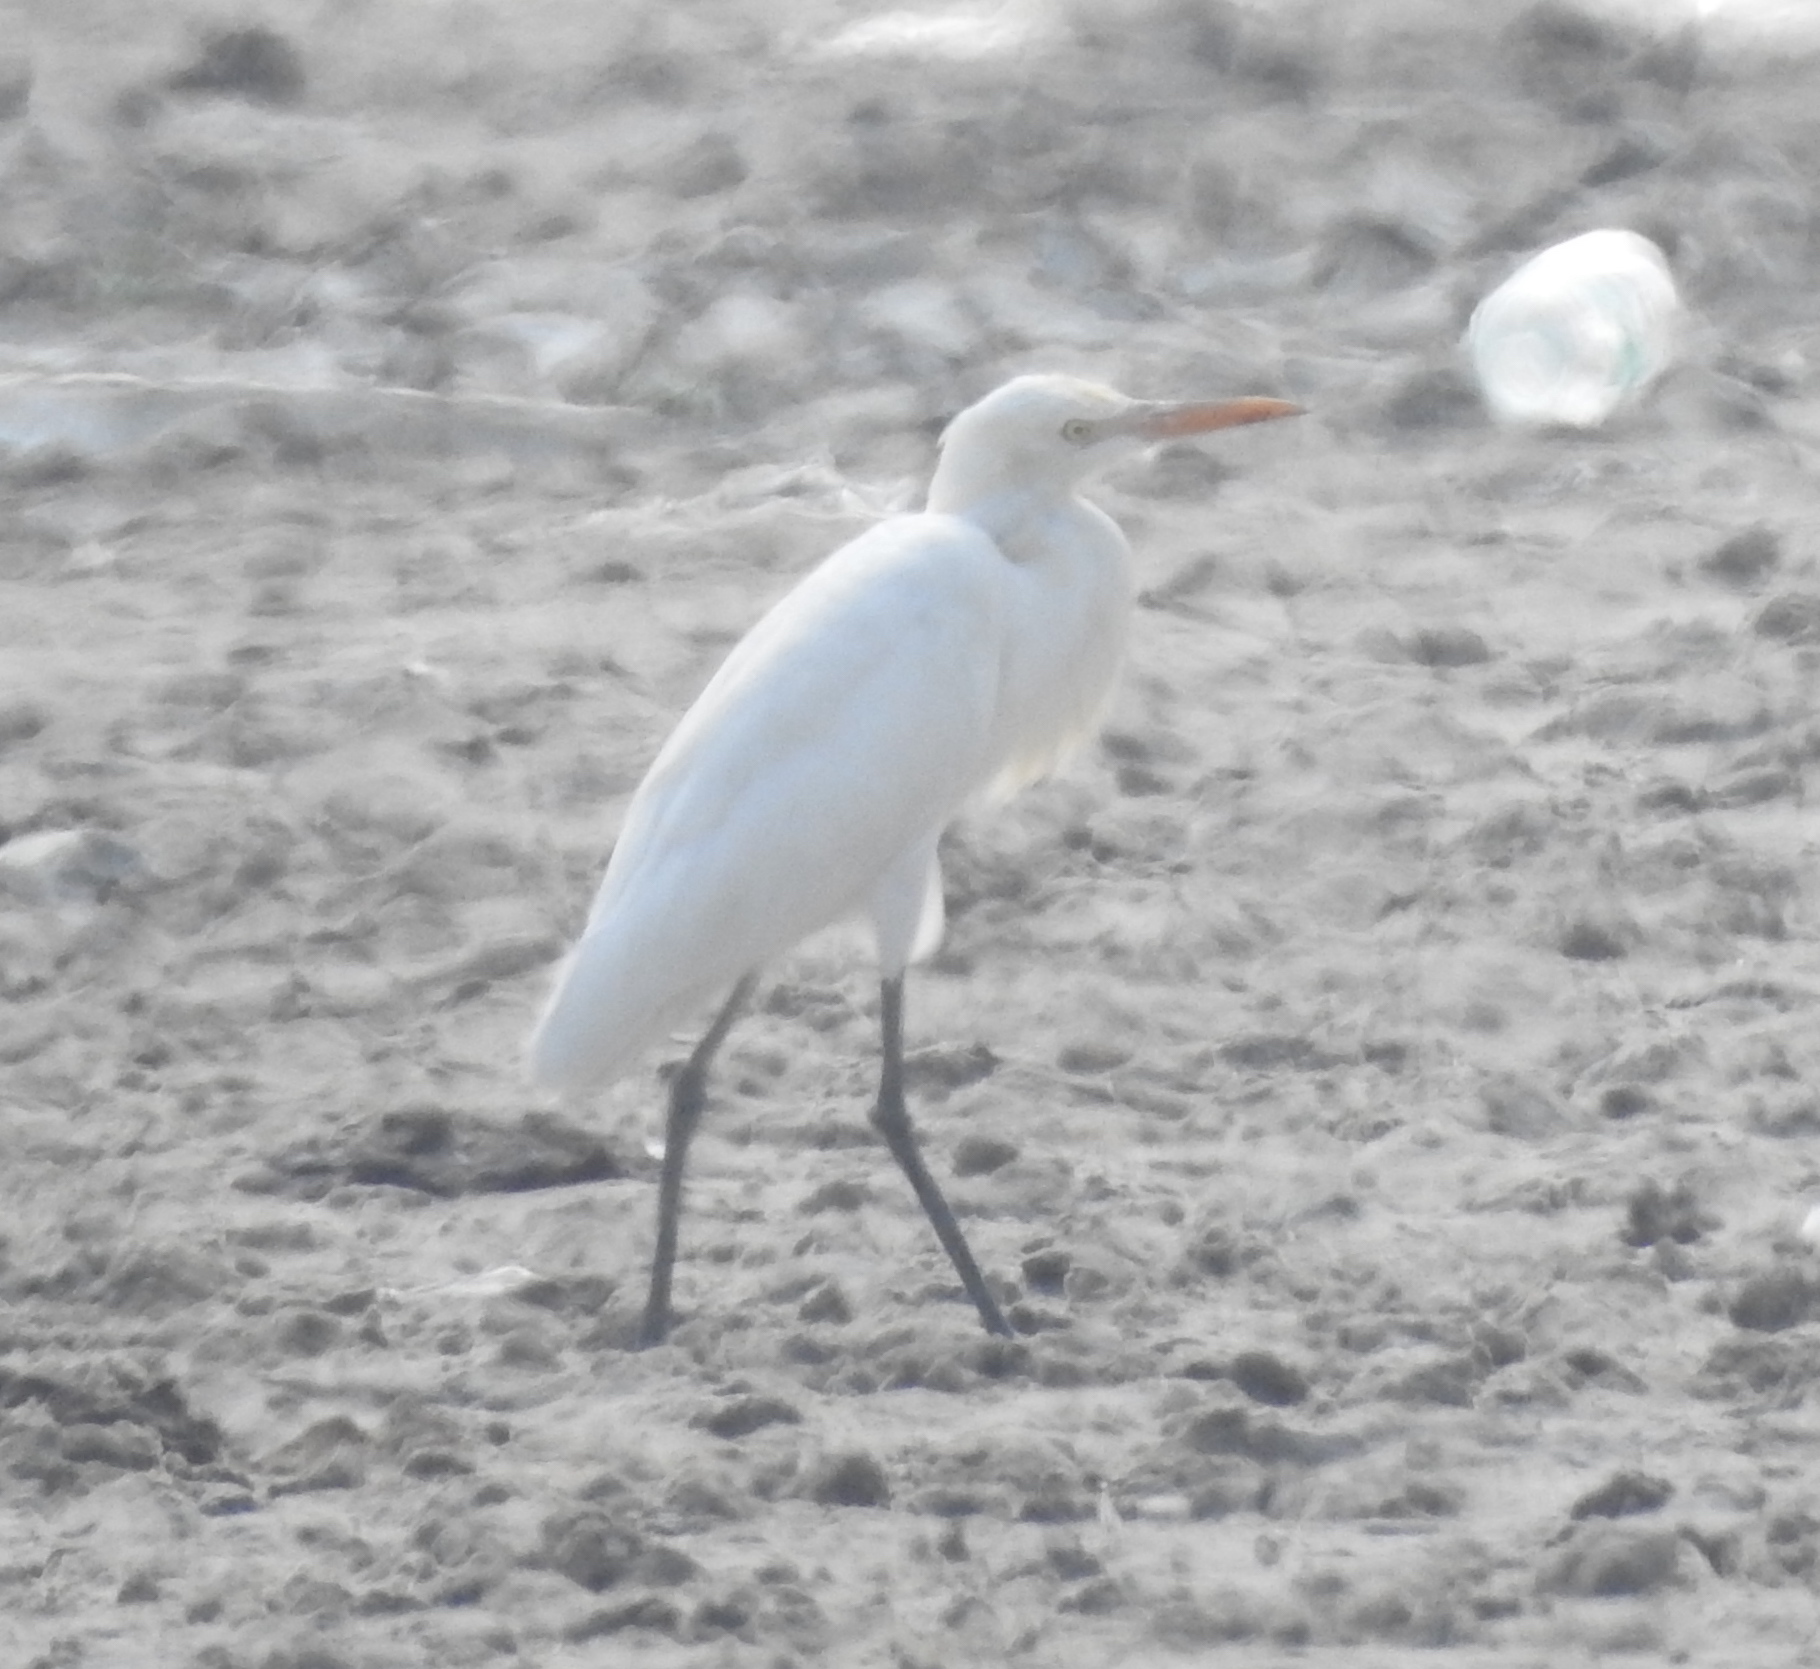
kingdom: Animalia
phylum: Chordata
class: Aves
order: Pelecaniformes
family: Ardeidae
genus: Bubulcus
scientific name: Bubulcus coromandus
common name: Eastern cattle egret
